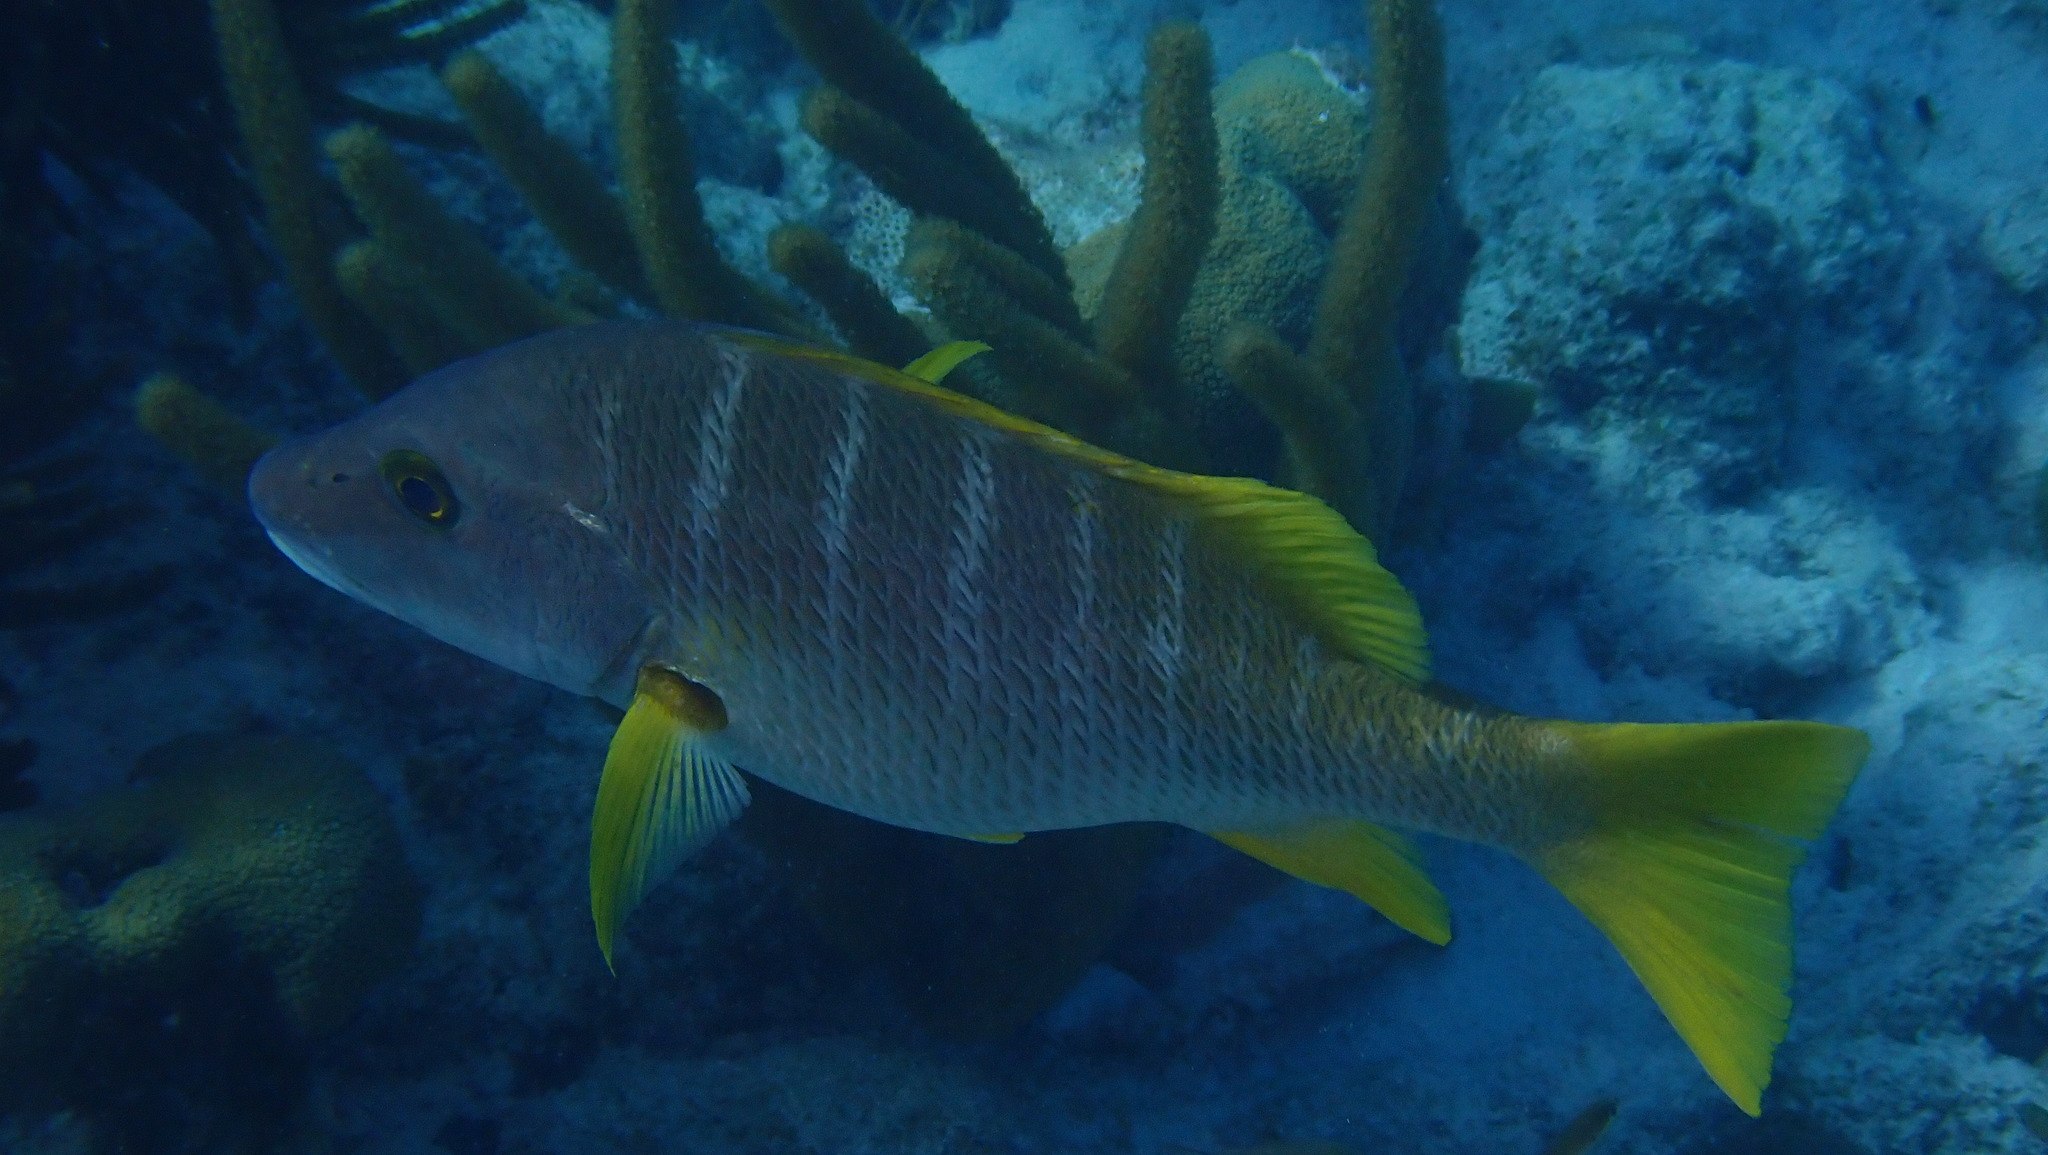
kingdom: Animalia
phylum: Chordata
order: Perciformes
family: Lutjanidae
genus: Lutjanus
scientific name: Lutjanus apodus
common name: Schoolmaster
